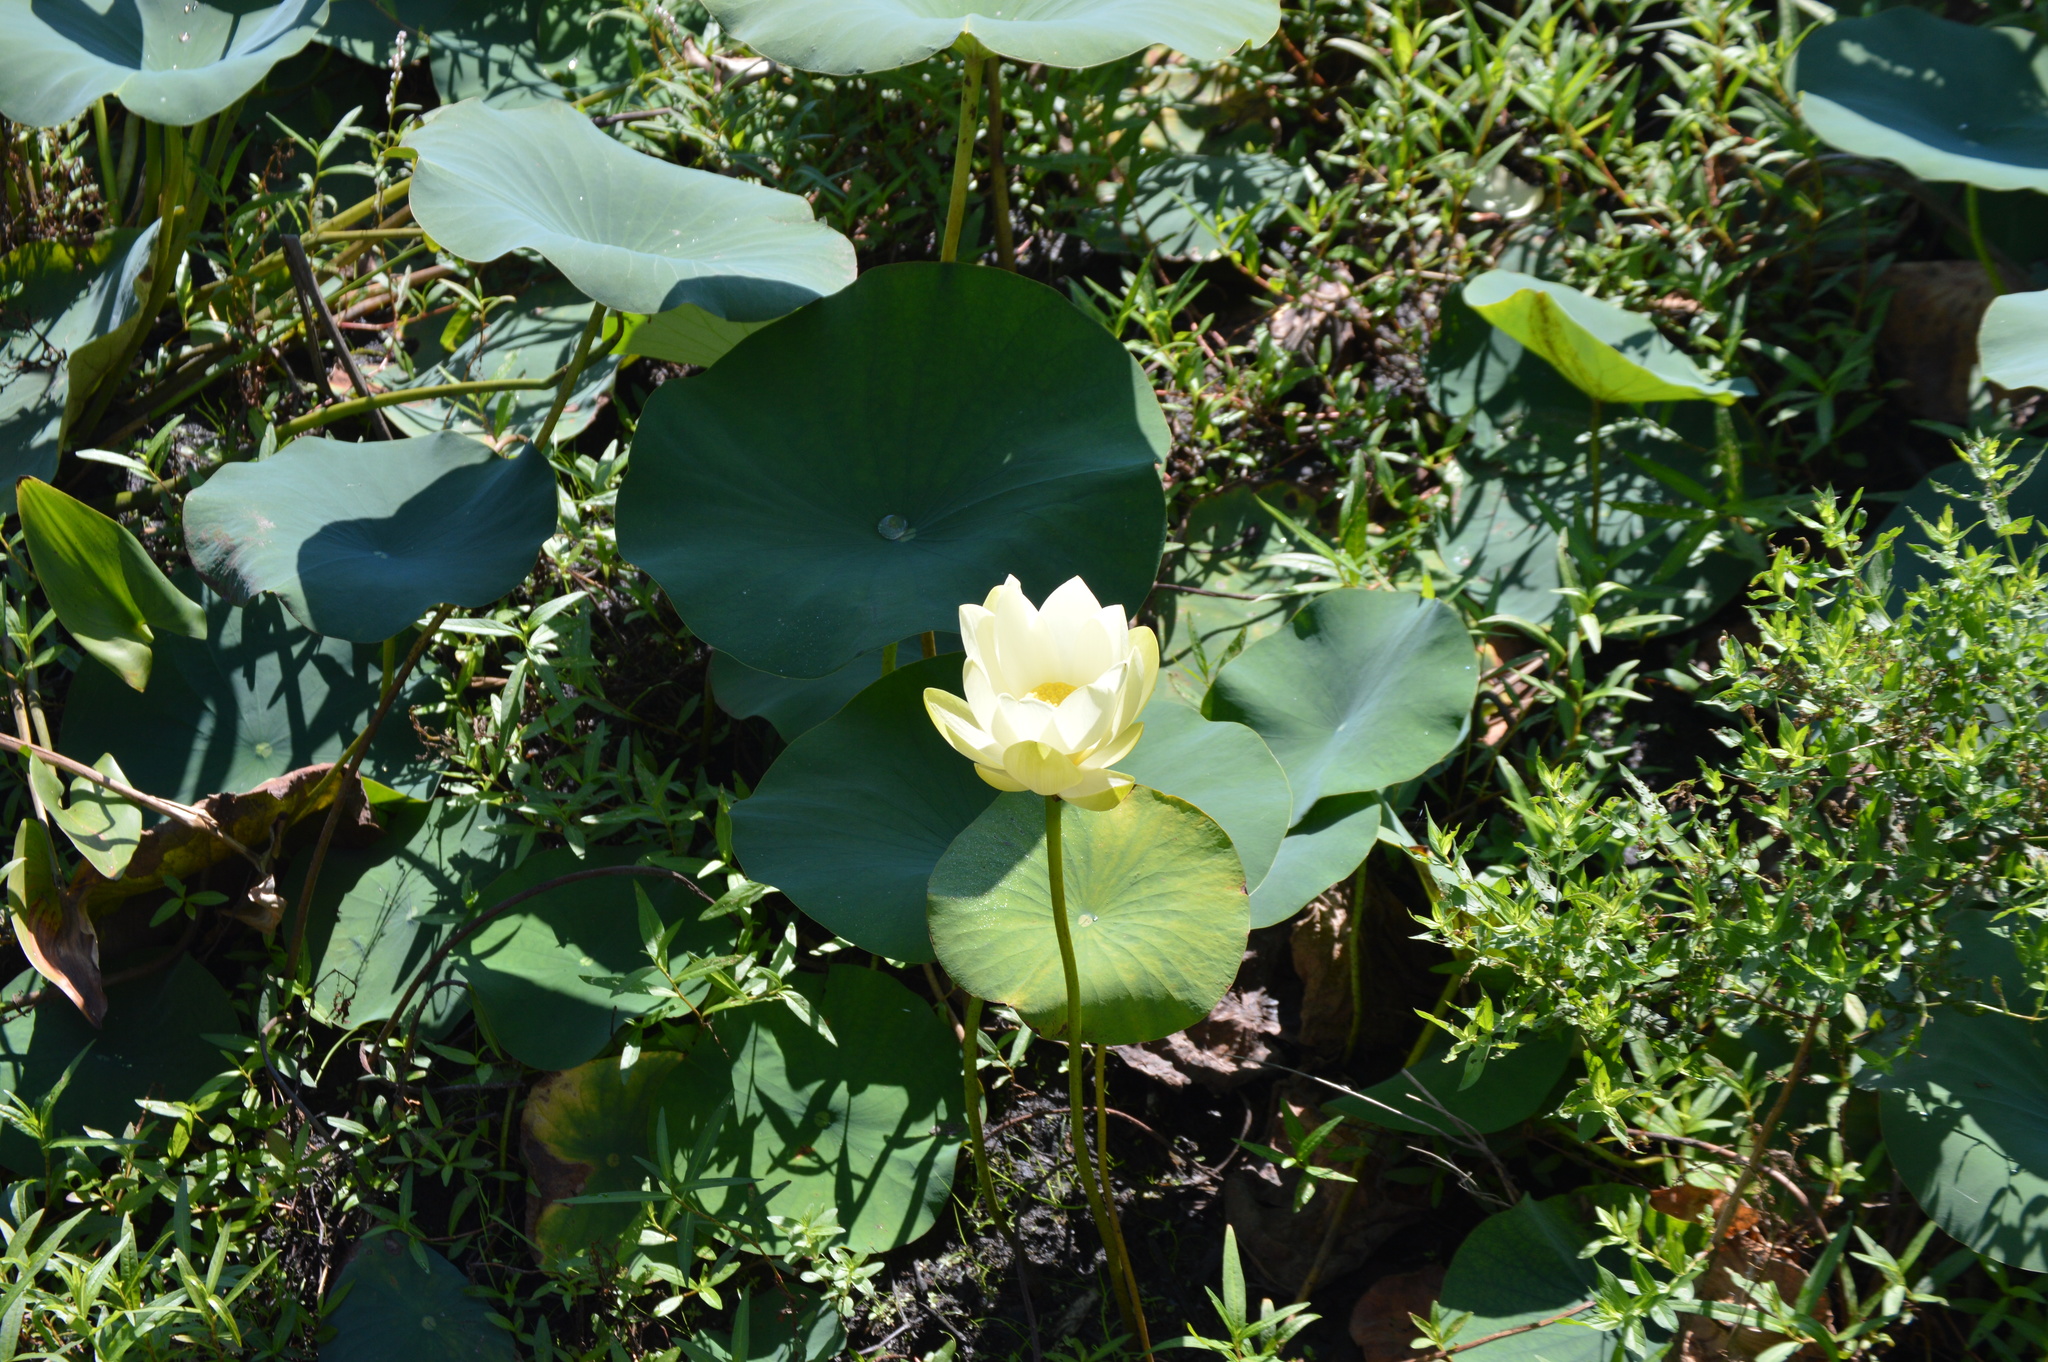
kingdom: Plantae
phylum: Tracheophyta
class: Magnoliopsida
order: Proteales
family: Nelumbonaceae
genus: Nelumbo
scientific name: Nelumbo lutea
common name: American lotus
